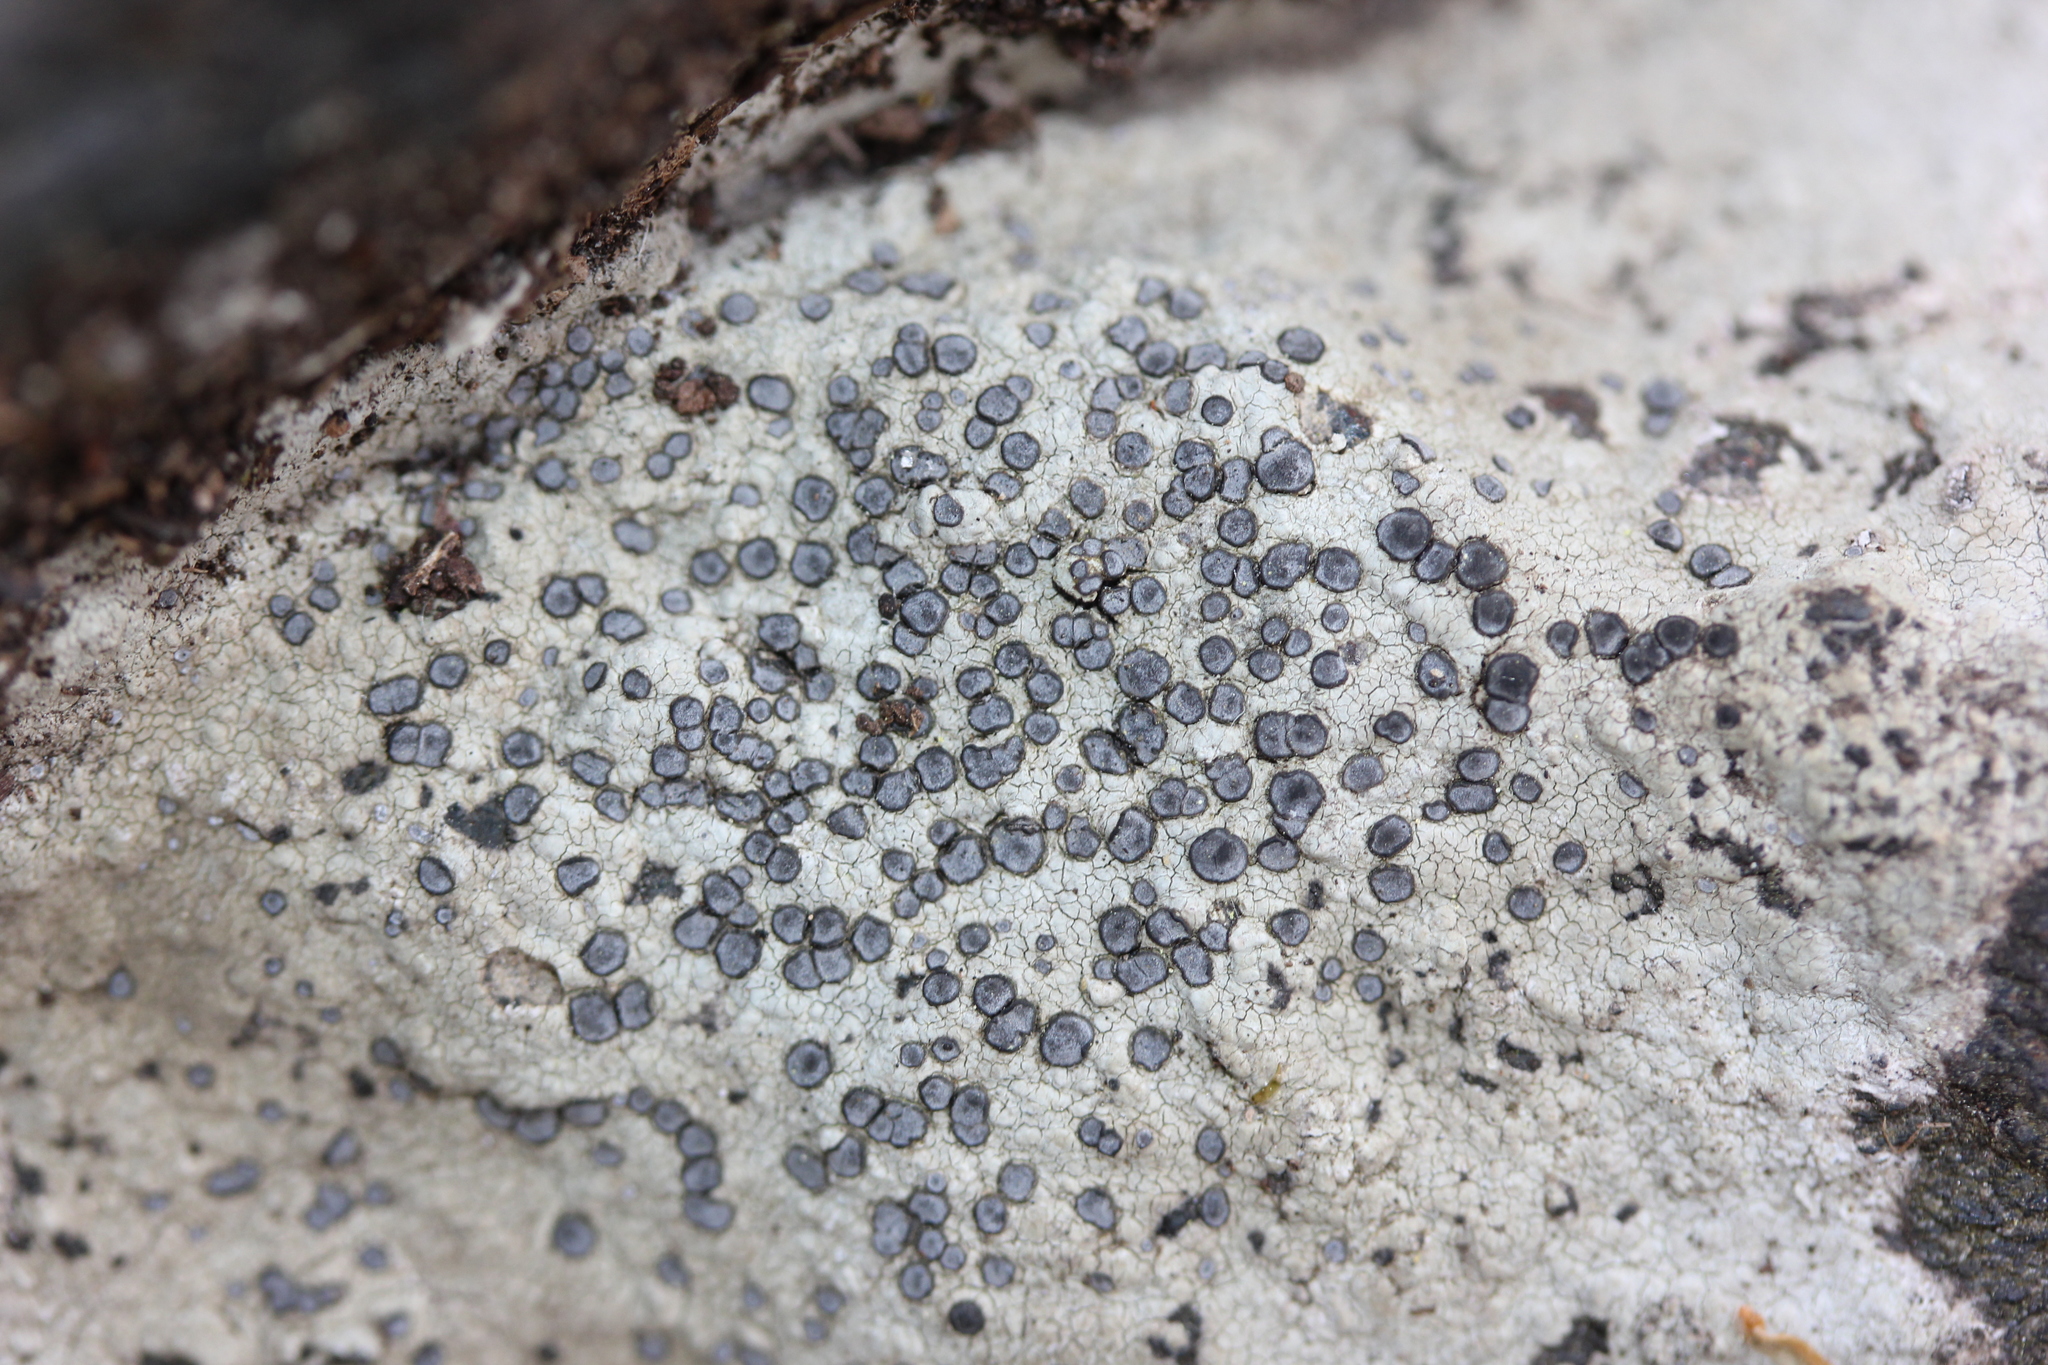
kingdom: Fungi
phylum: Ascomycota
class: Lecanoromycetes
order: Lecideales
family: Lecideaceae
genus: Porpidia
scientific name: Porpidia albocaerulescens
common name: Smokey-eyed boulder lichen
